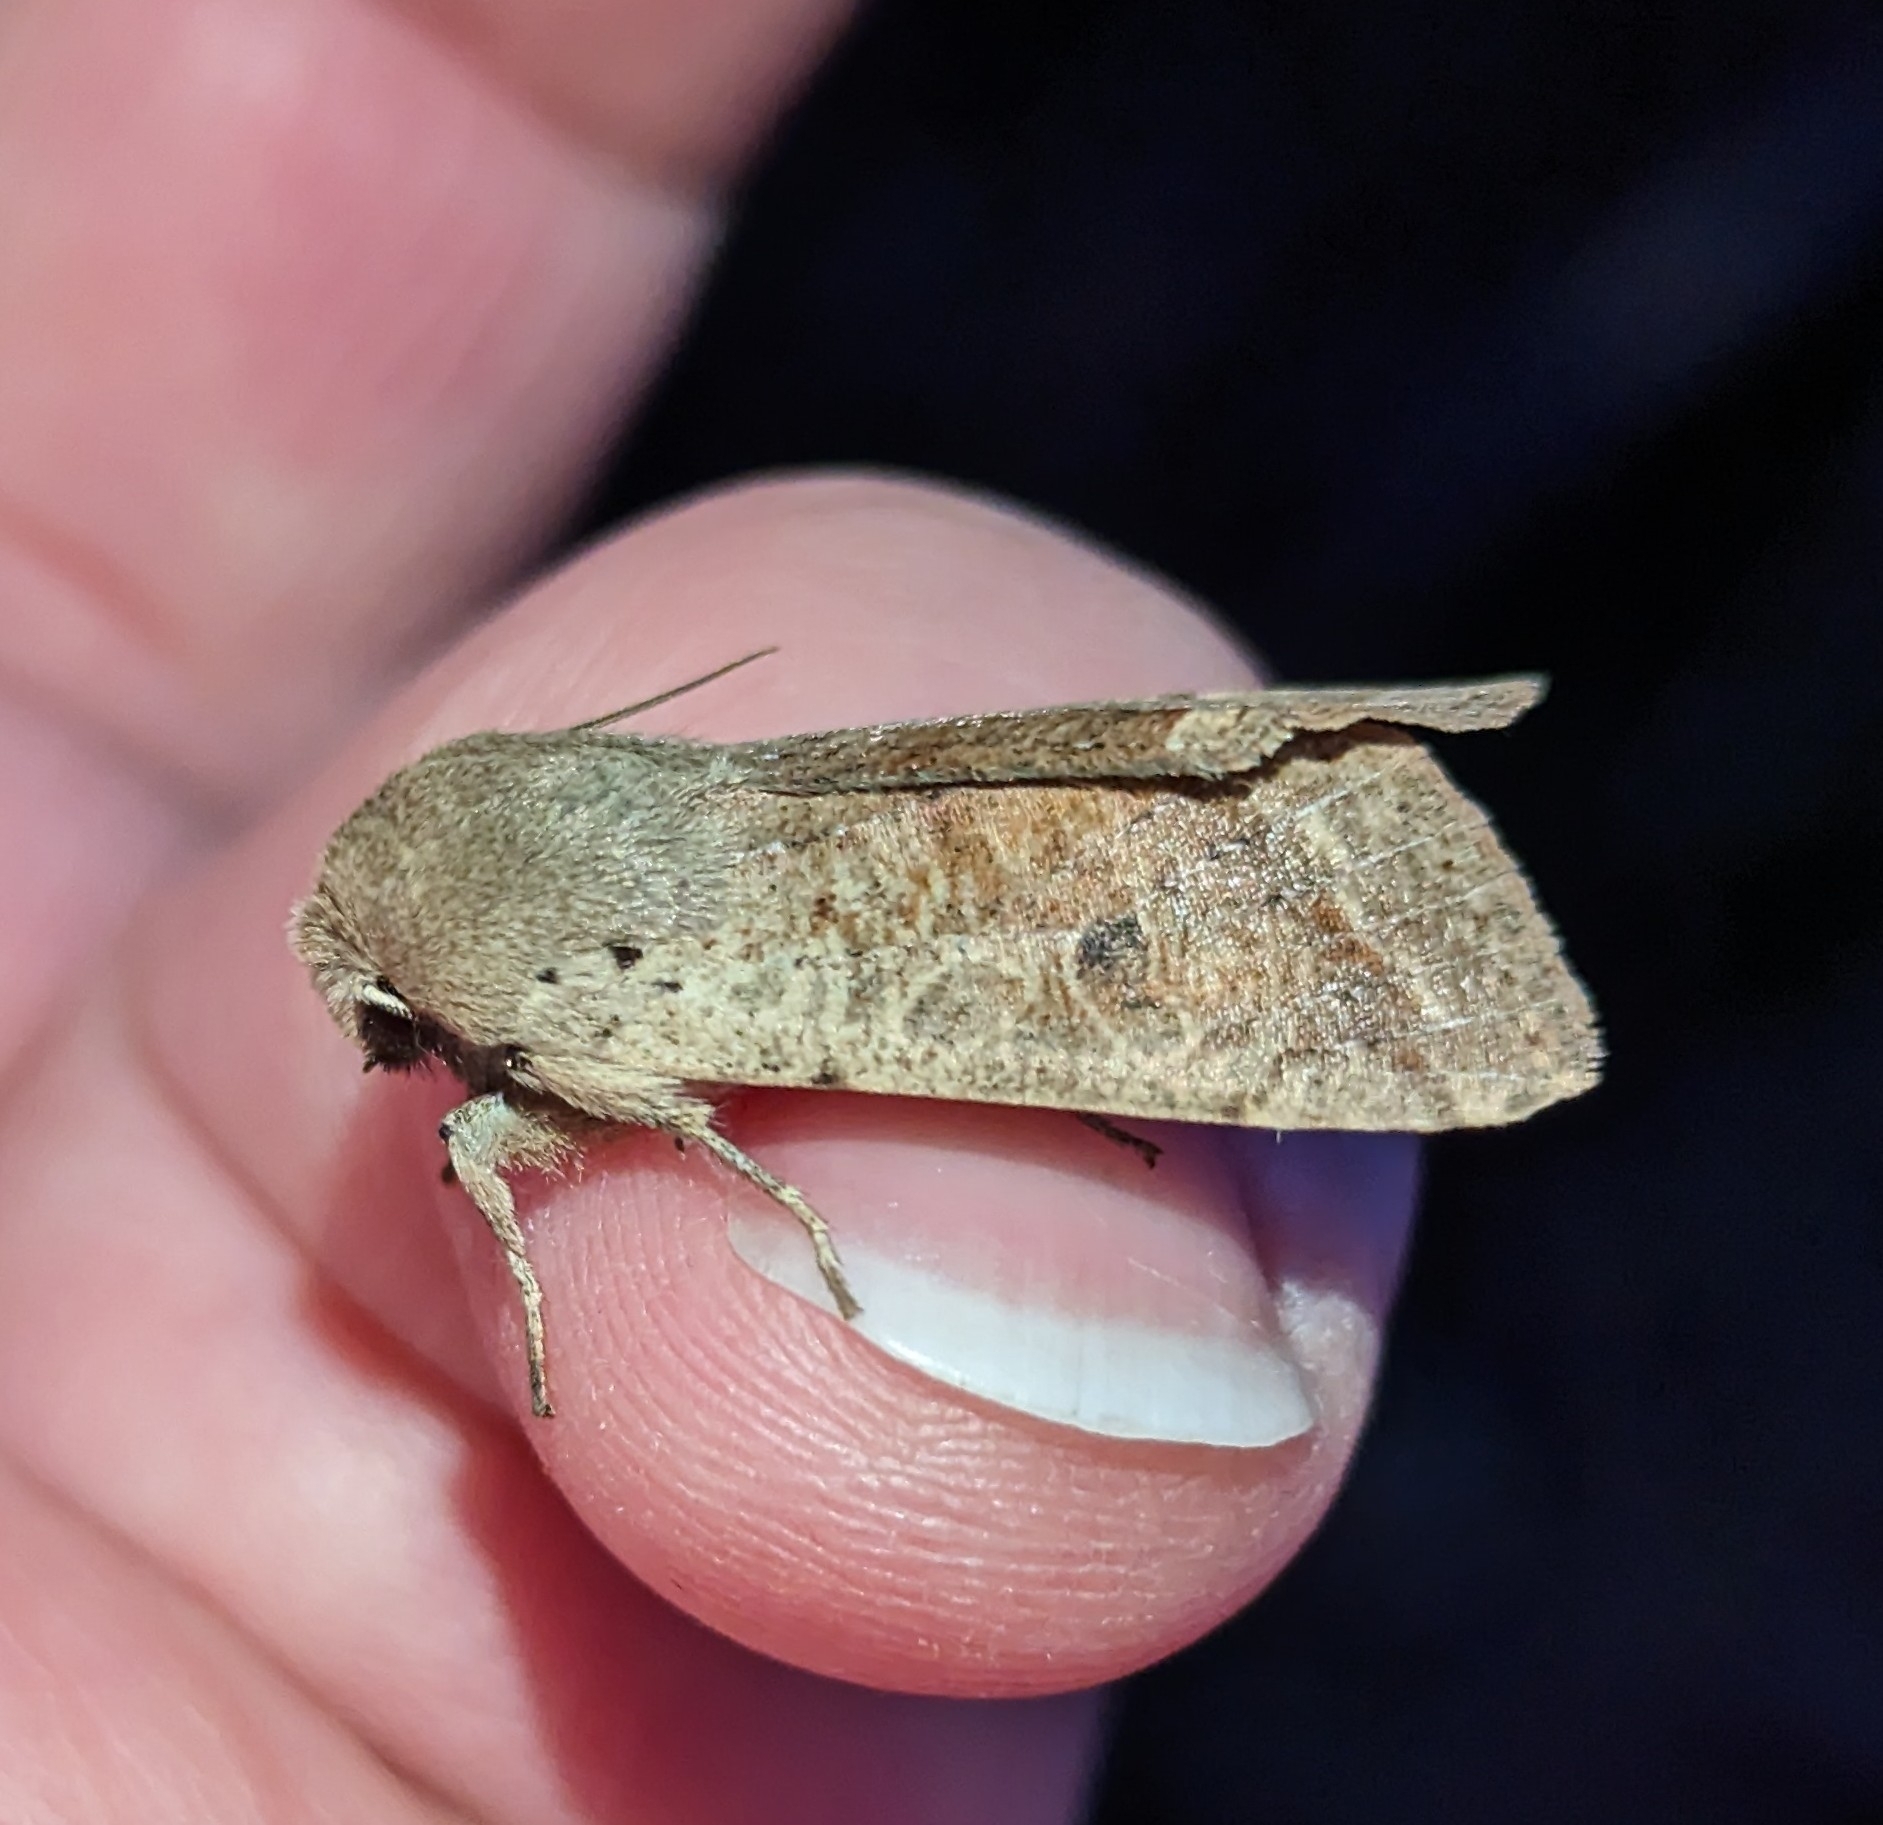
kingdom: Animalia
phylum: Arthropoda
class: Insecta
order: Lepidoptera
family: Noctuidae
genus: Orthosia
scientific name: Orthosia pacifica
